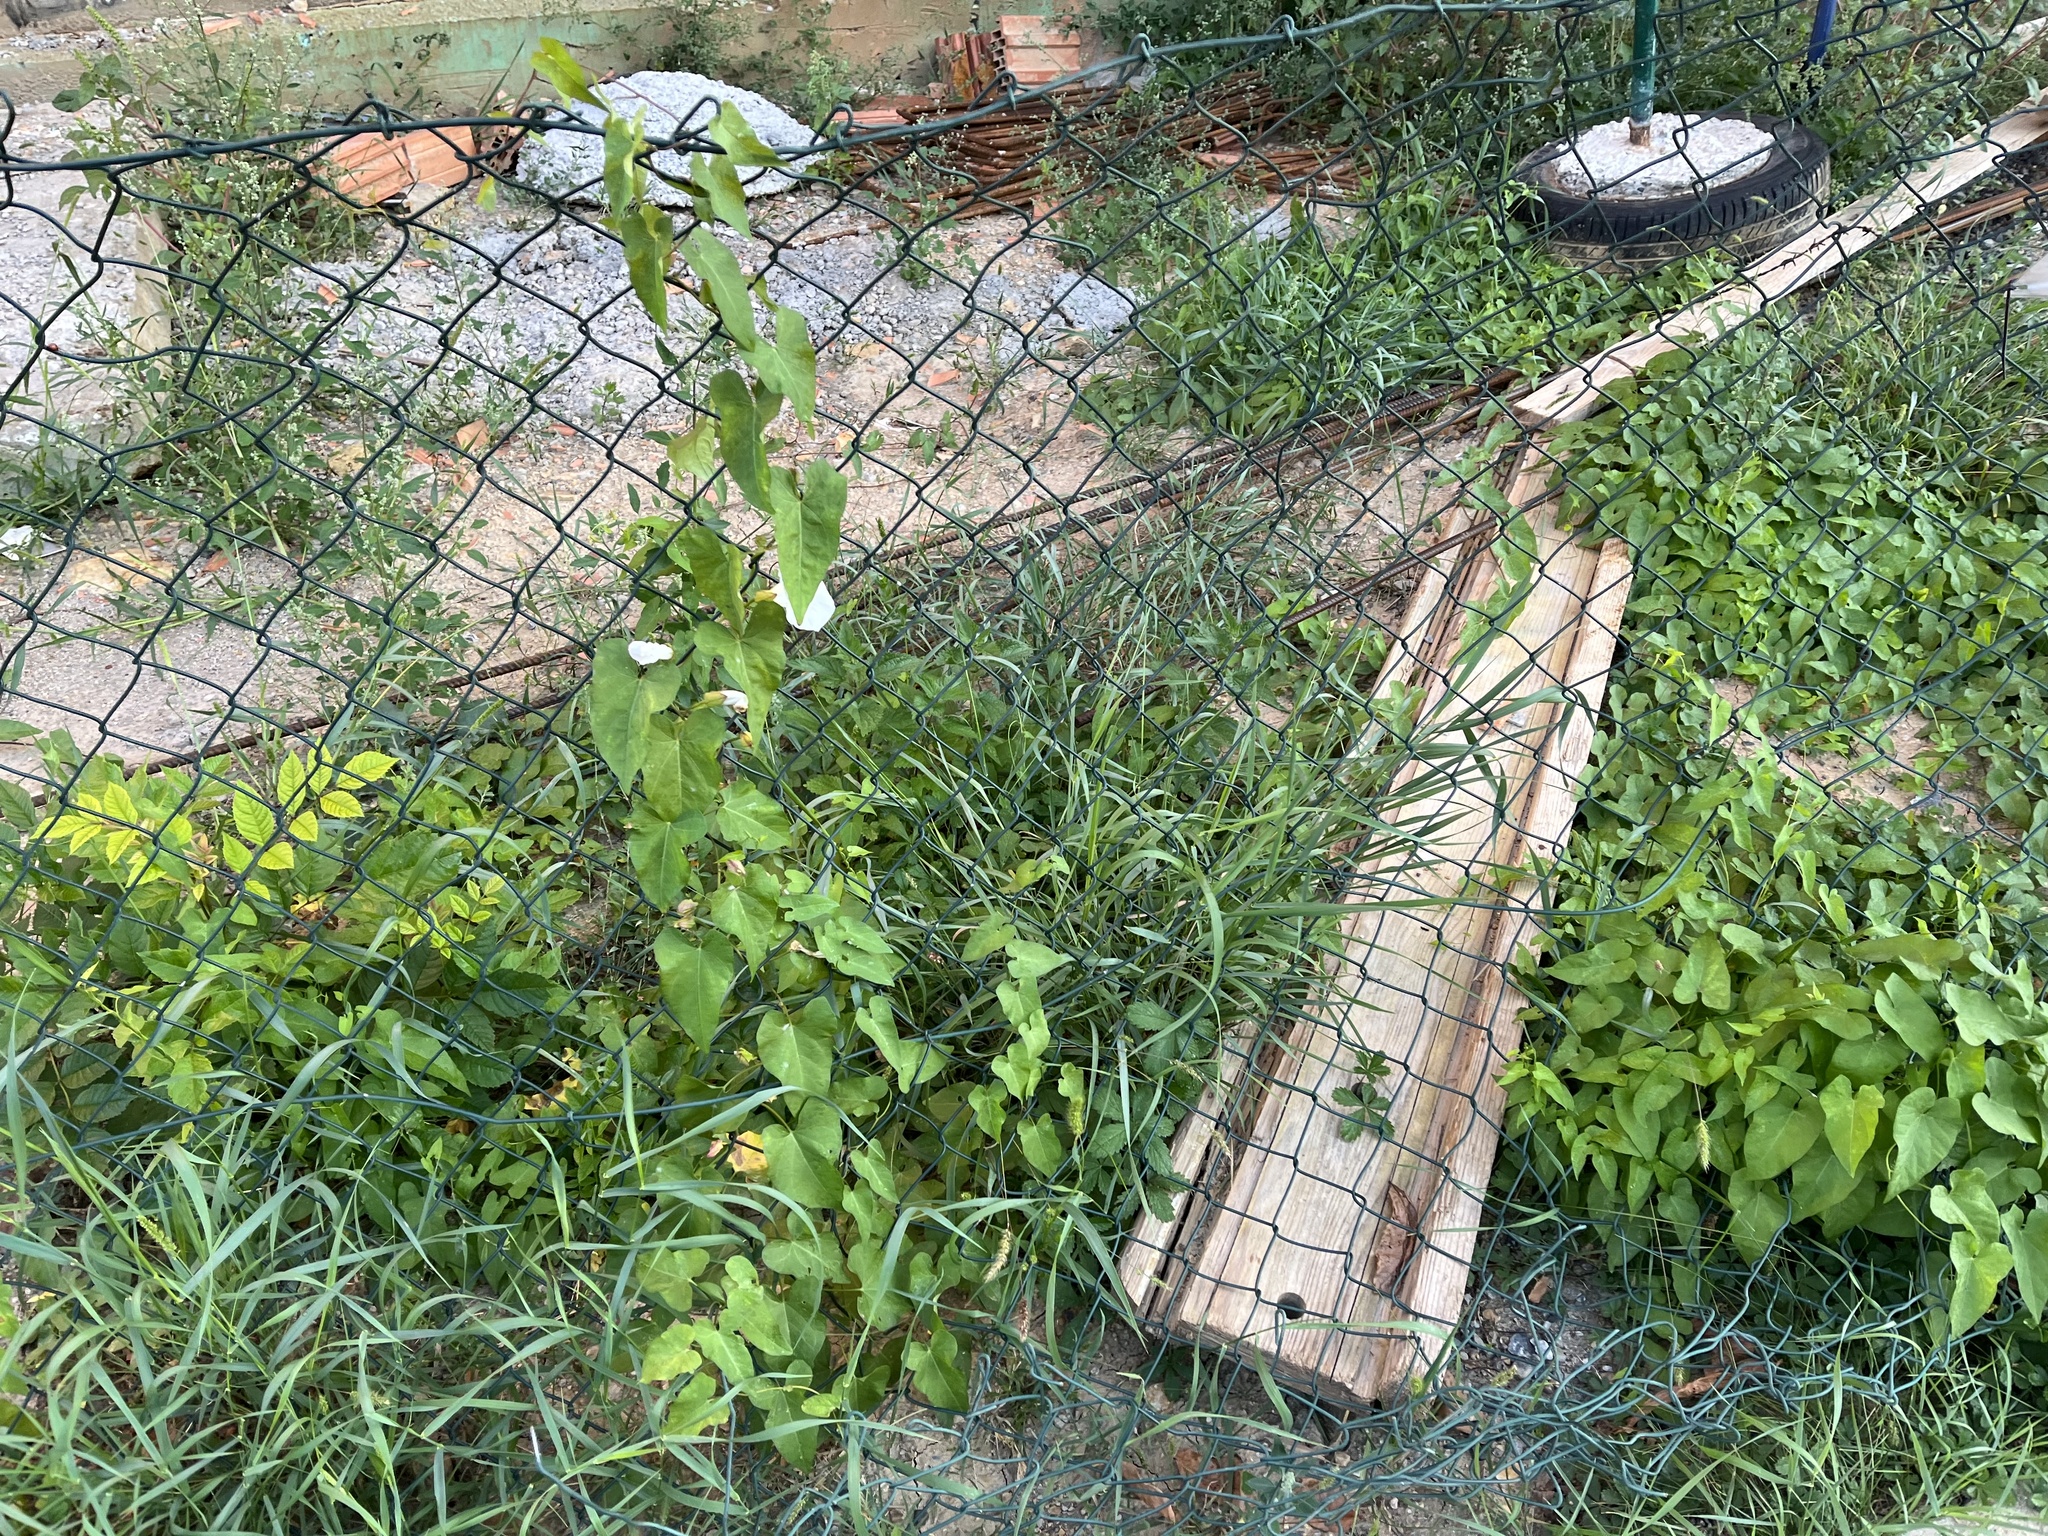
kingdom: Plantae
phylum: Tracheophyta
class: Magnoliopsida
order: Solanales
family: Convolvulaceae
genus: Calystegia
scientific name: Calystegia sepium
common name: Hedge bindweed
